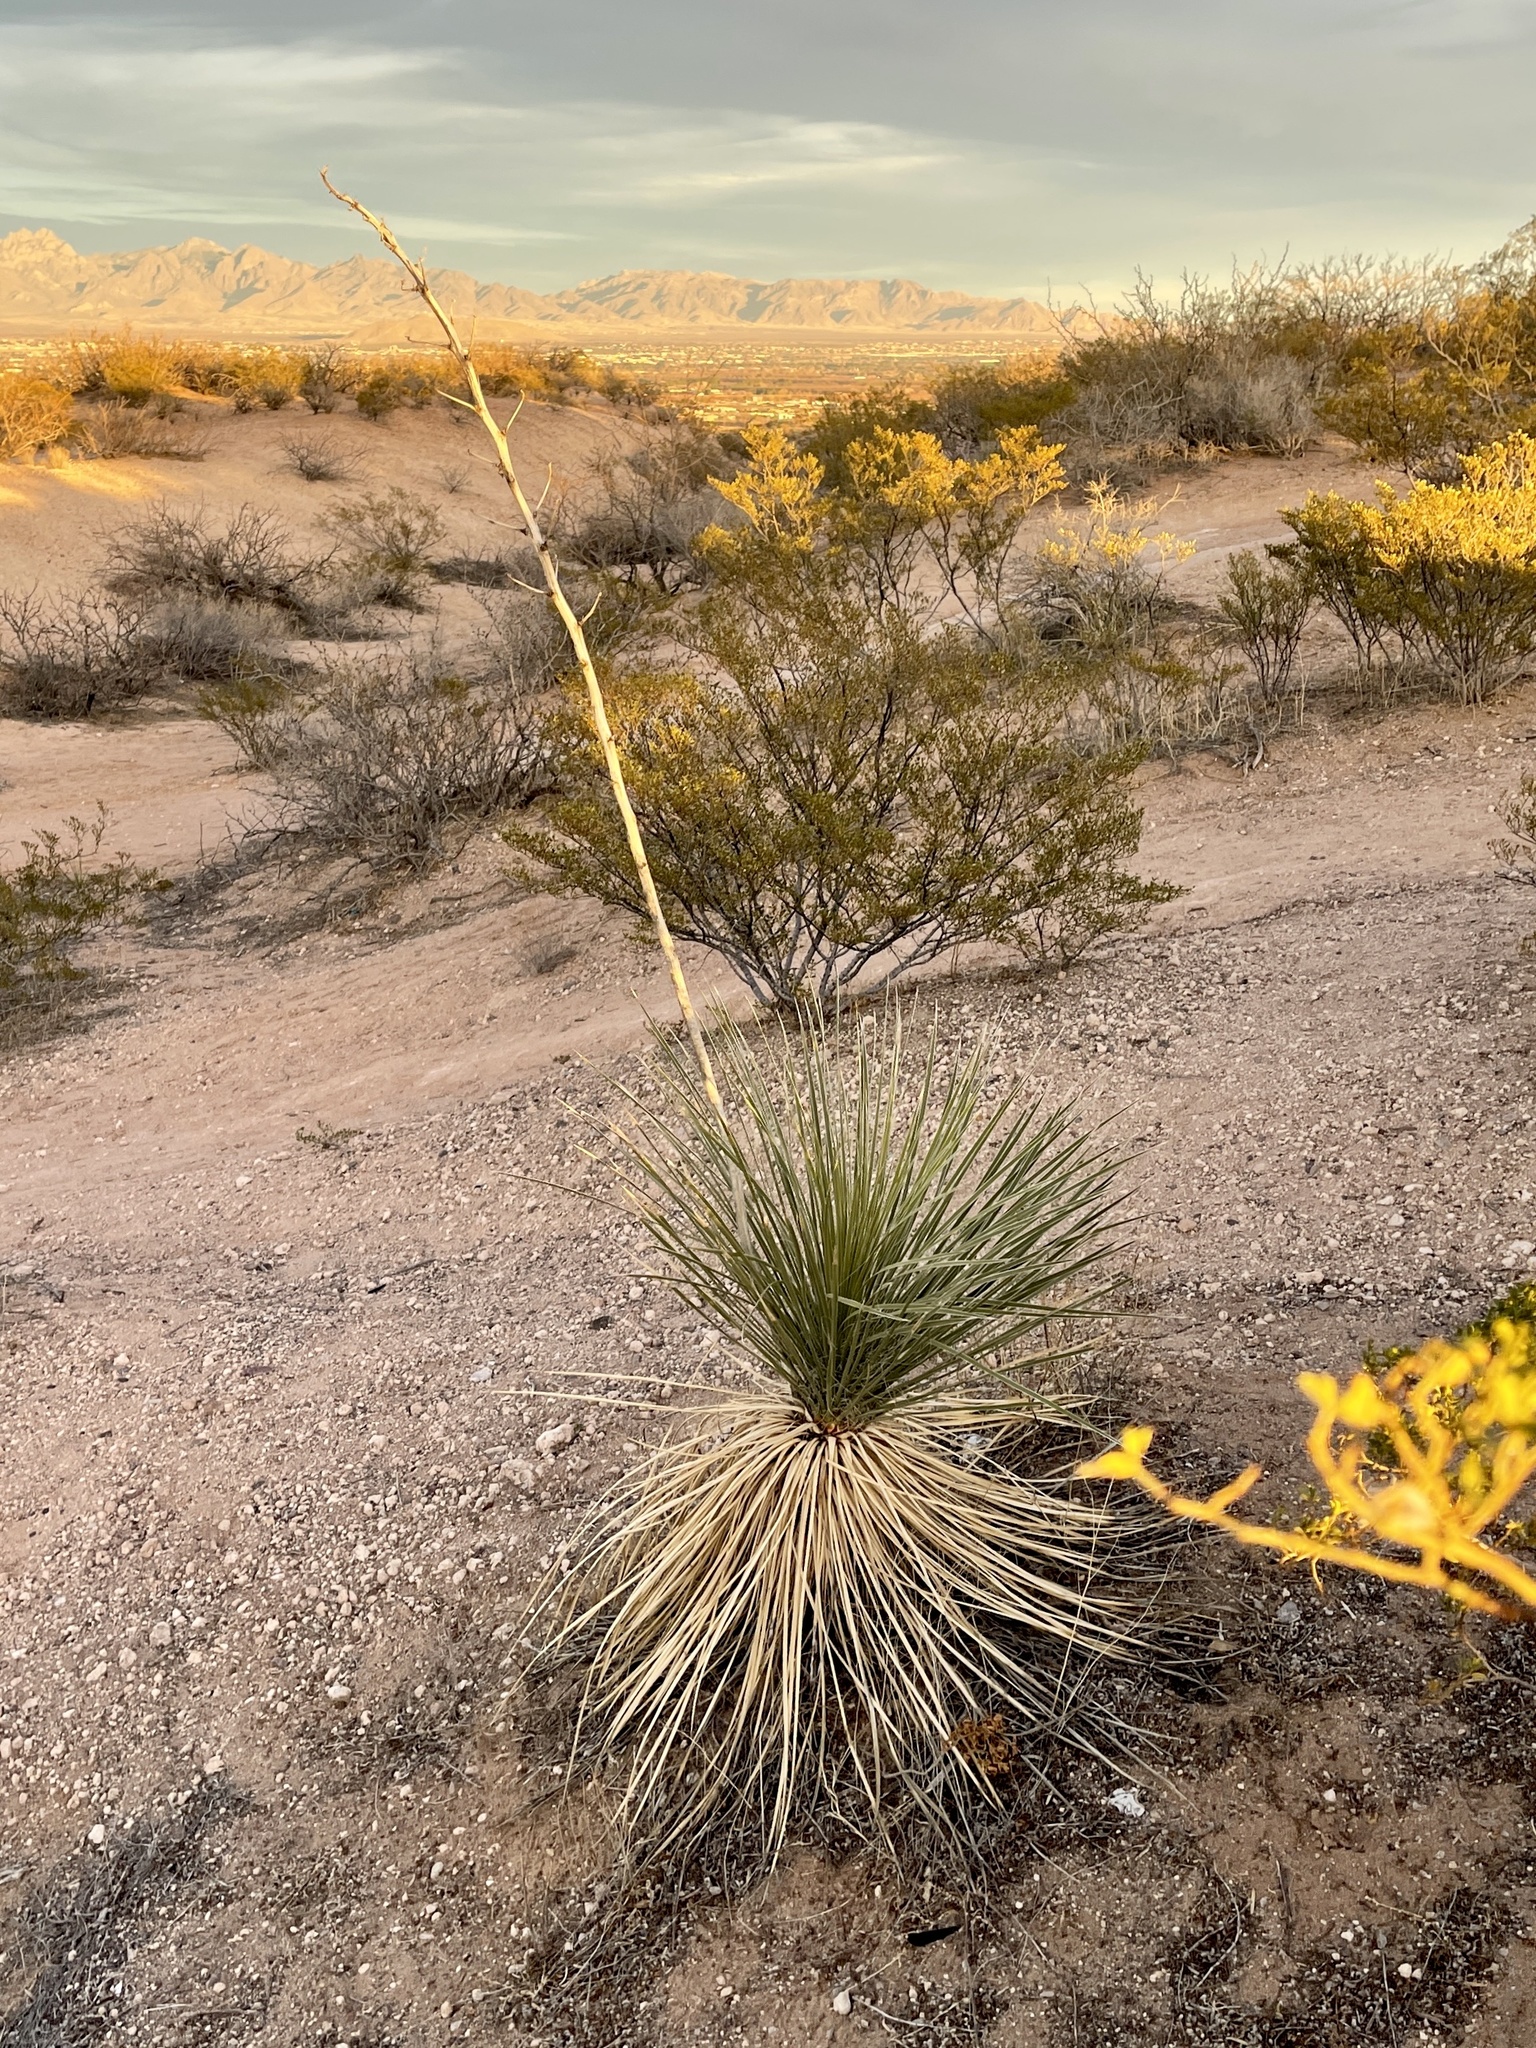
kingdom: Plantae
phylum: Tracheophyta
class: Liliopsida
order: Asparagales
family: Asparagaceae
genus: Yucca
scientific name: Yucca elata
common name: Palmella
